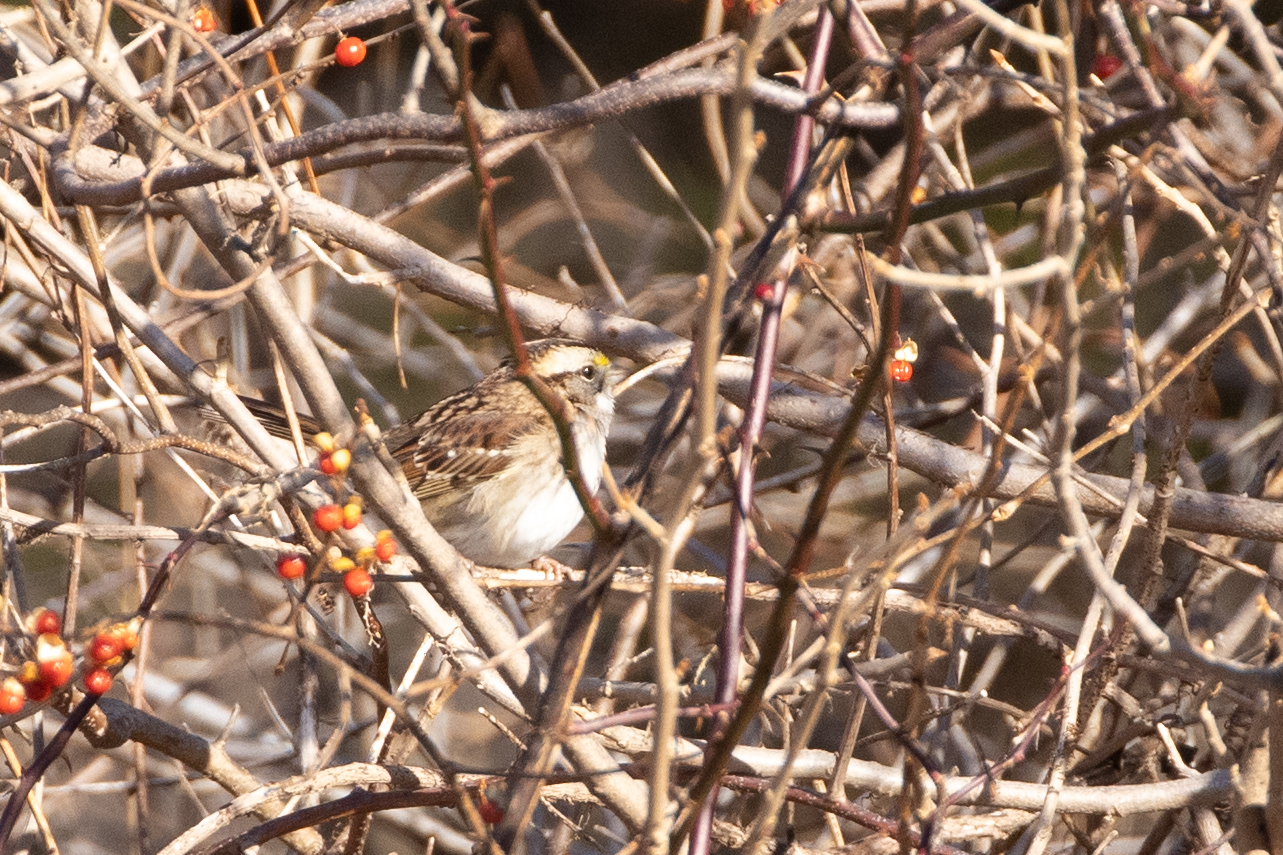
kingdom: Animalia
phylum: Chordata
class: Aves
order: Passeriformes
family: Passerellidae
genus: Zonotrichia
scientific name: Zonotrichia albicollis
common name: White-throated sparrow
